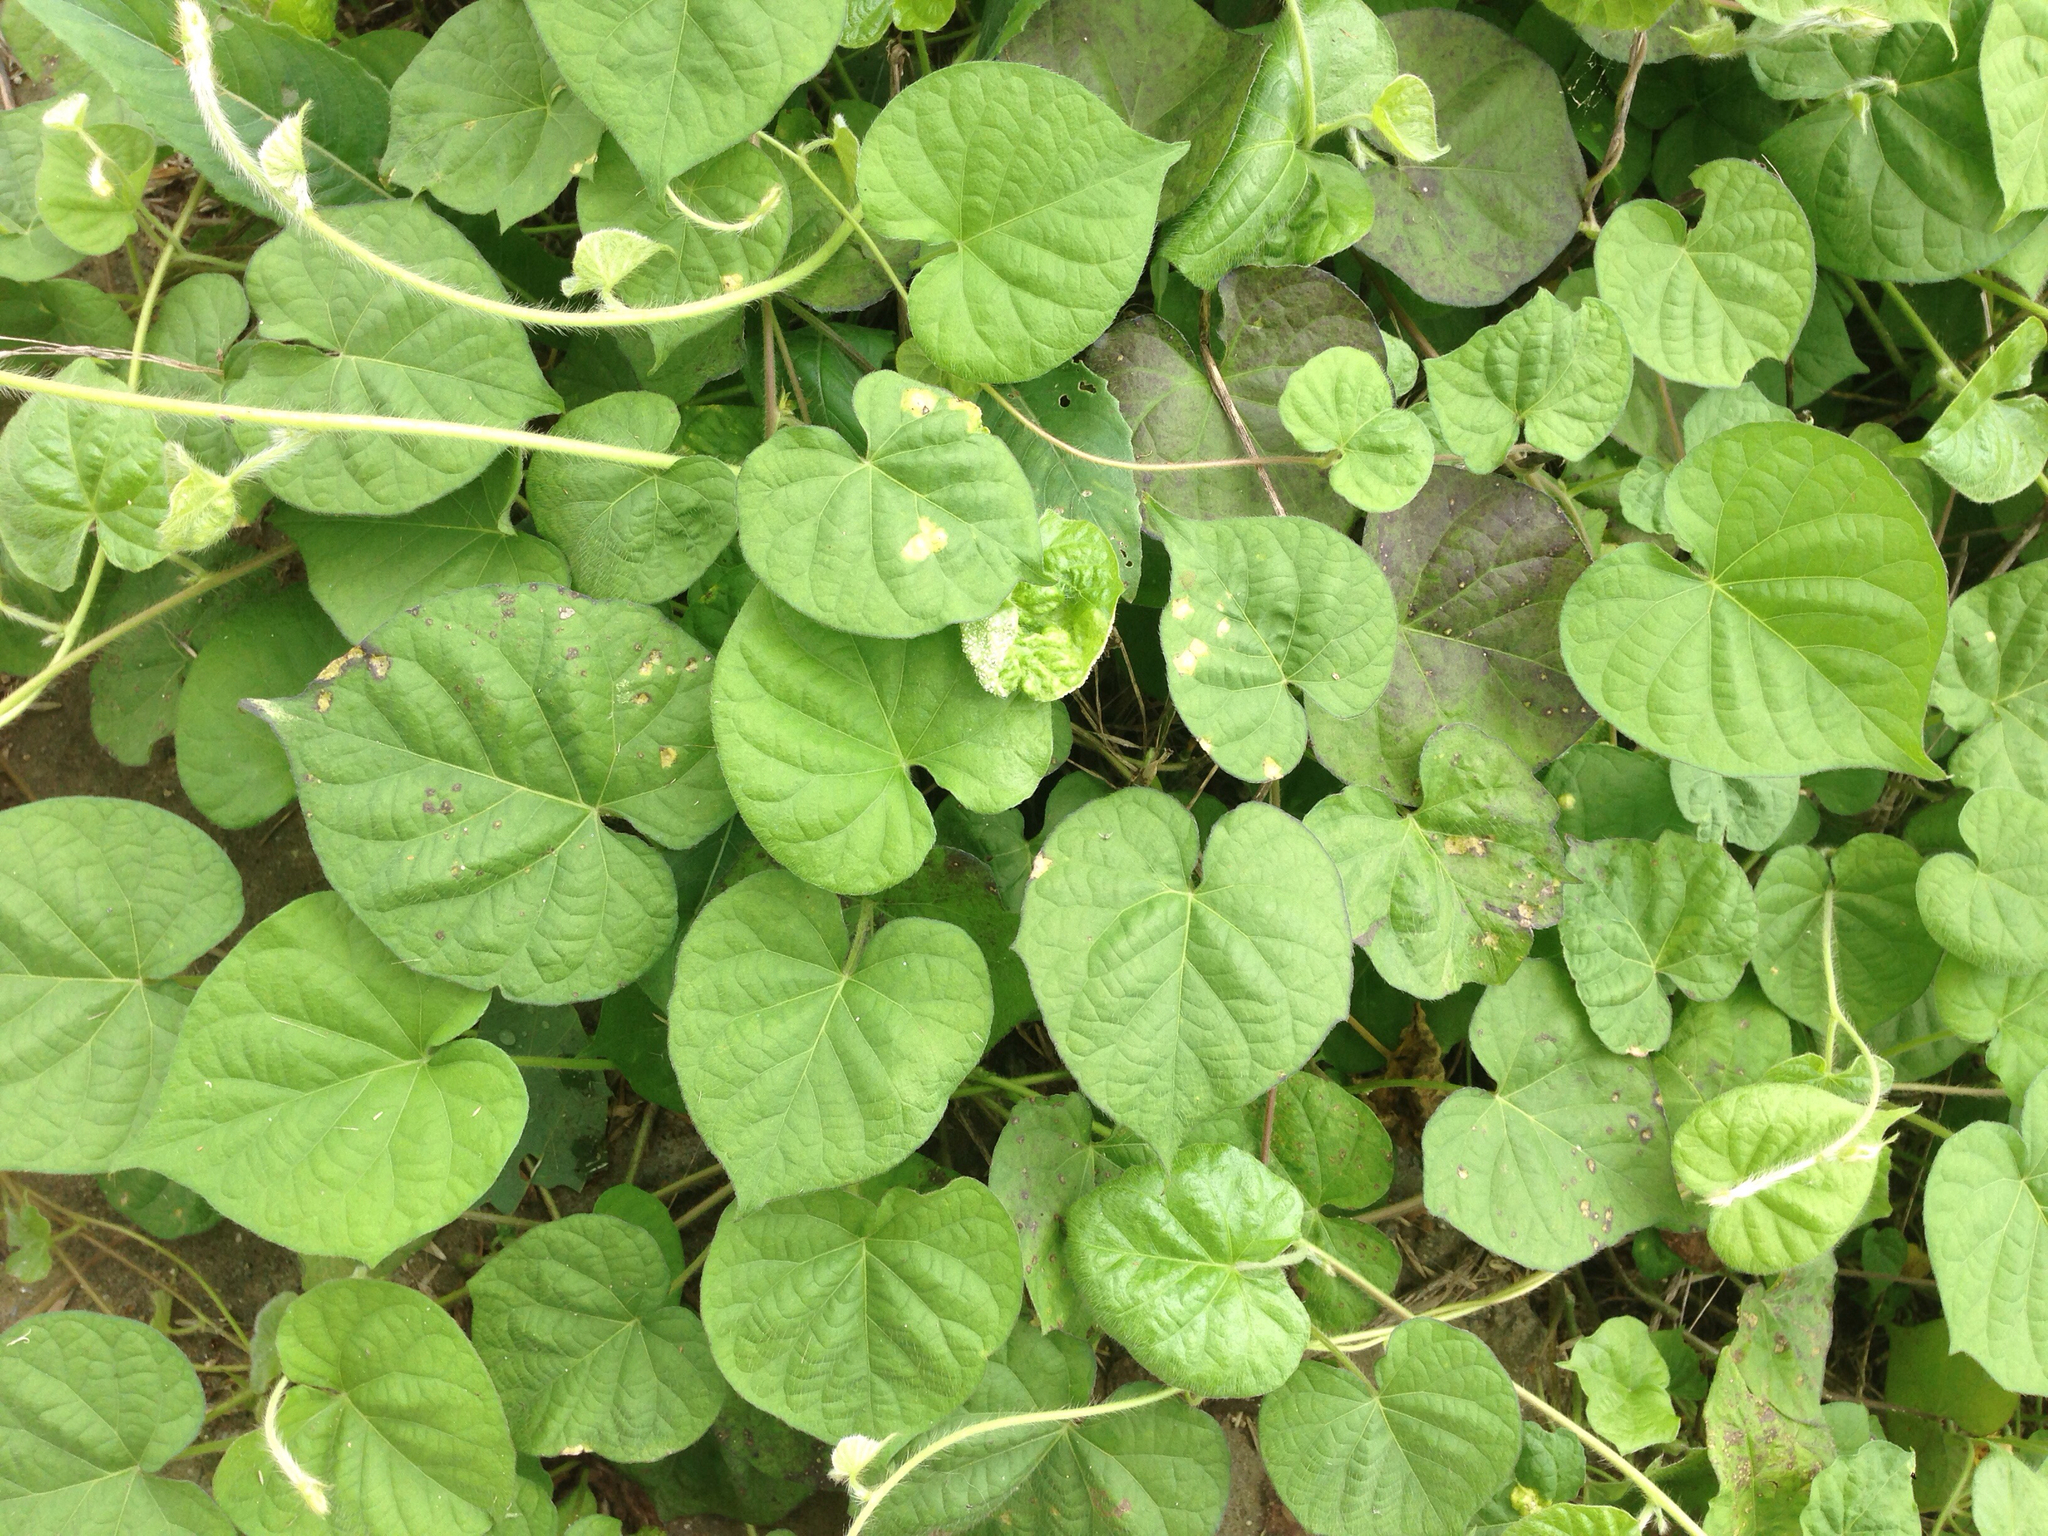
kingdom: Plantae
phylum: Tracheophyta
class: Magnoliopsida
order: Solanales
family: Convolvulaceae
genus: Ipomoea
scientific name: Ipomoea lacunosa
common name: White morning-glory
